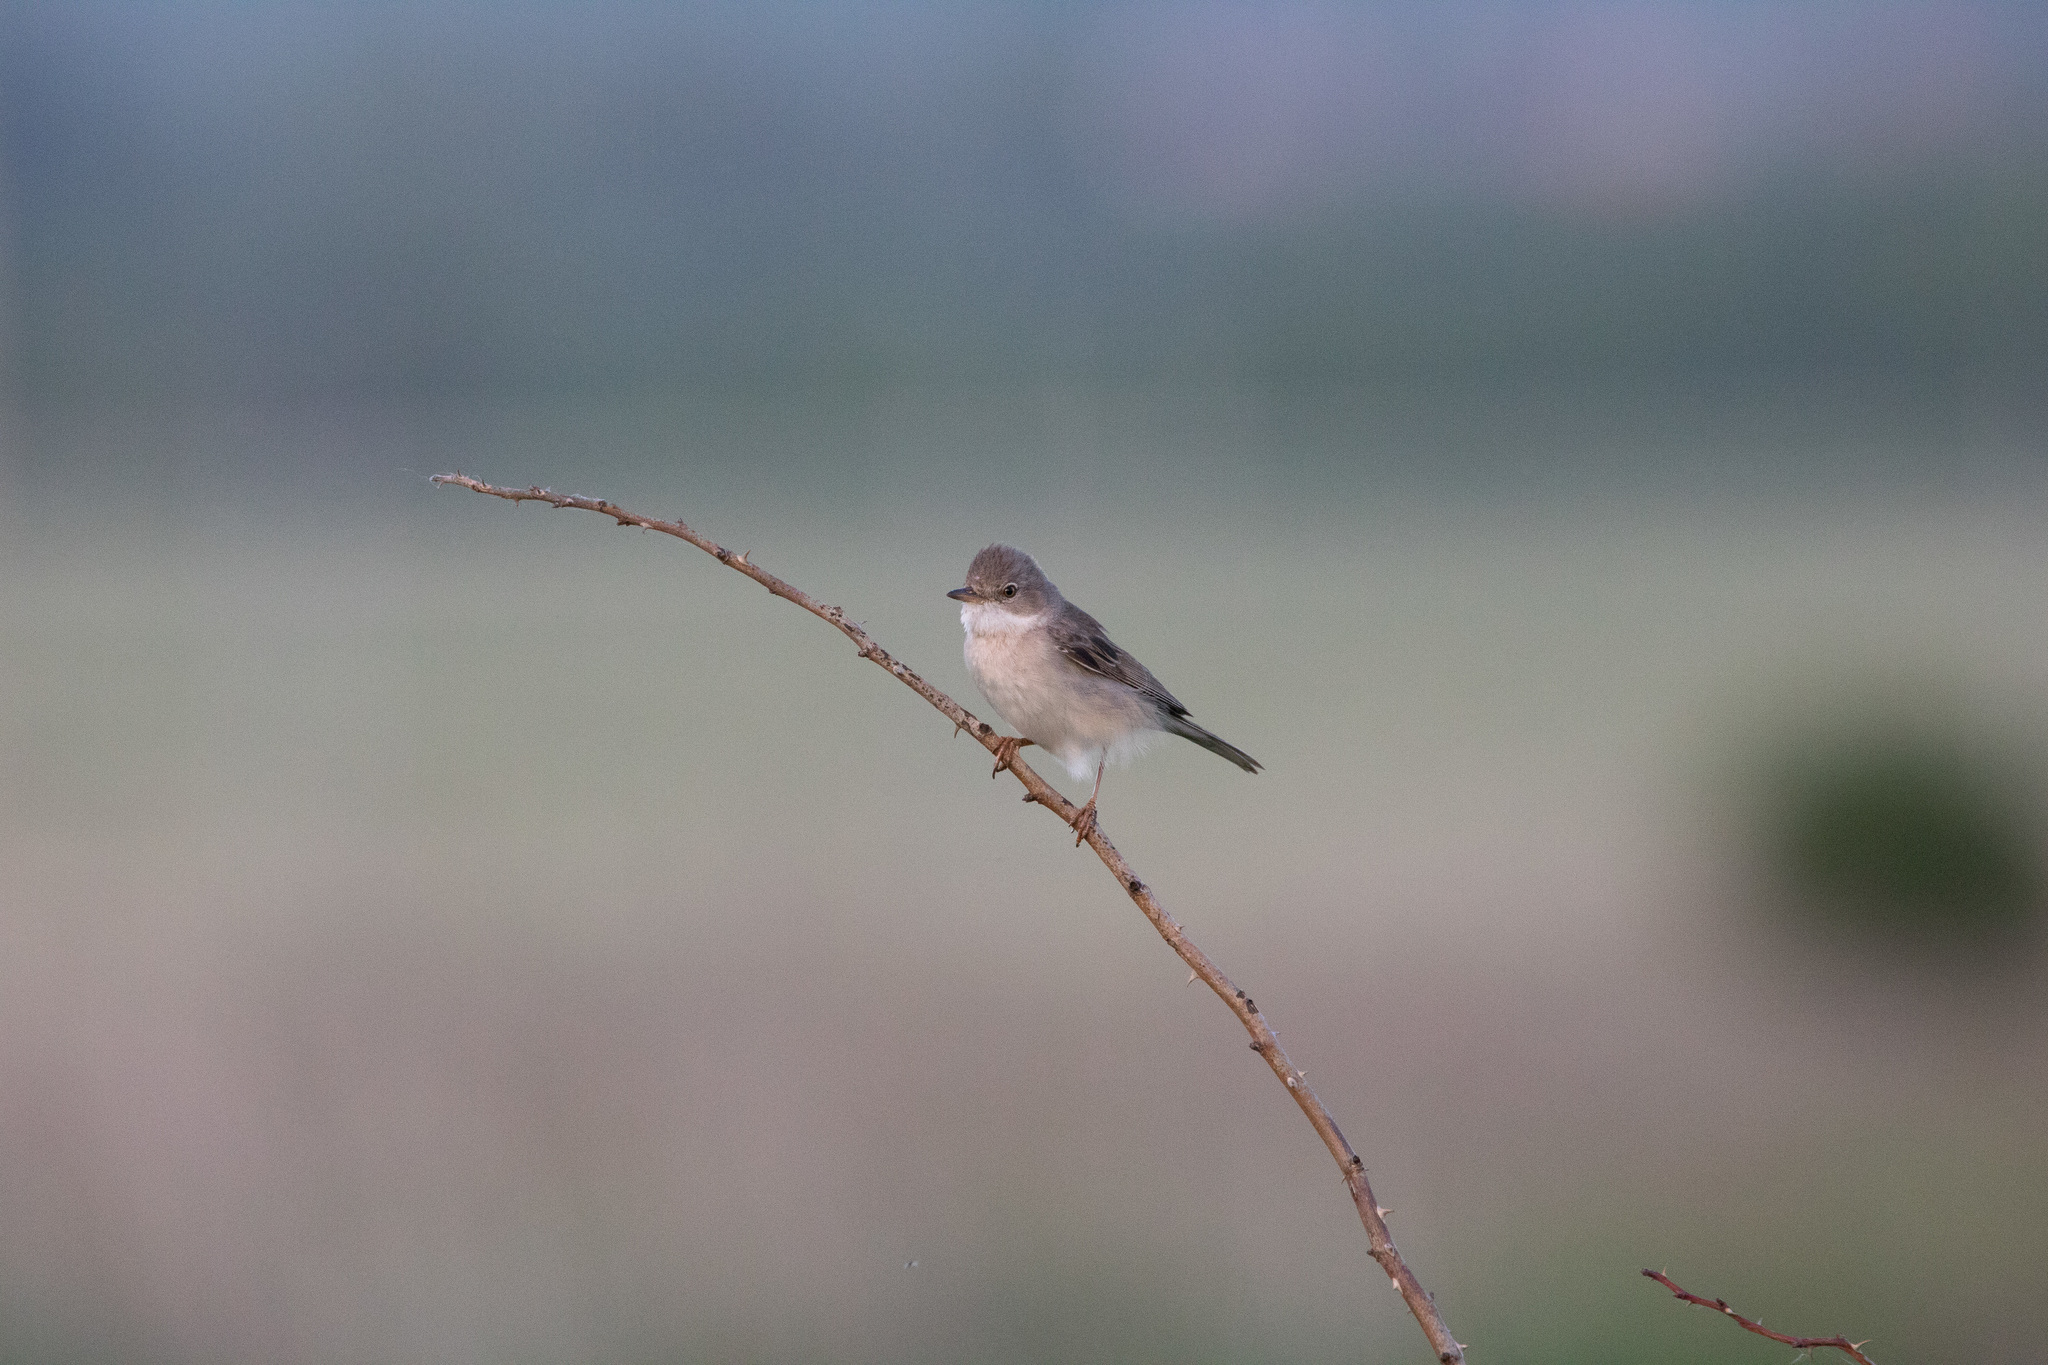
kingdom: Animalia
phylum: Chordata
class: Aves
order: Passeriformes
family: Sylviidae
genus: Sylvia
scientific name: Sylvia communis
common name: Common whitethroat
